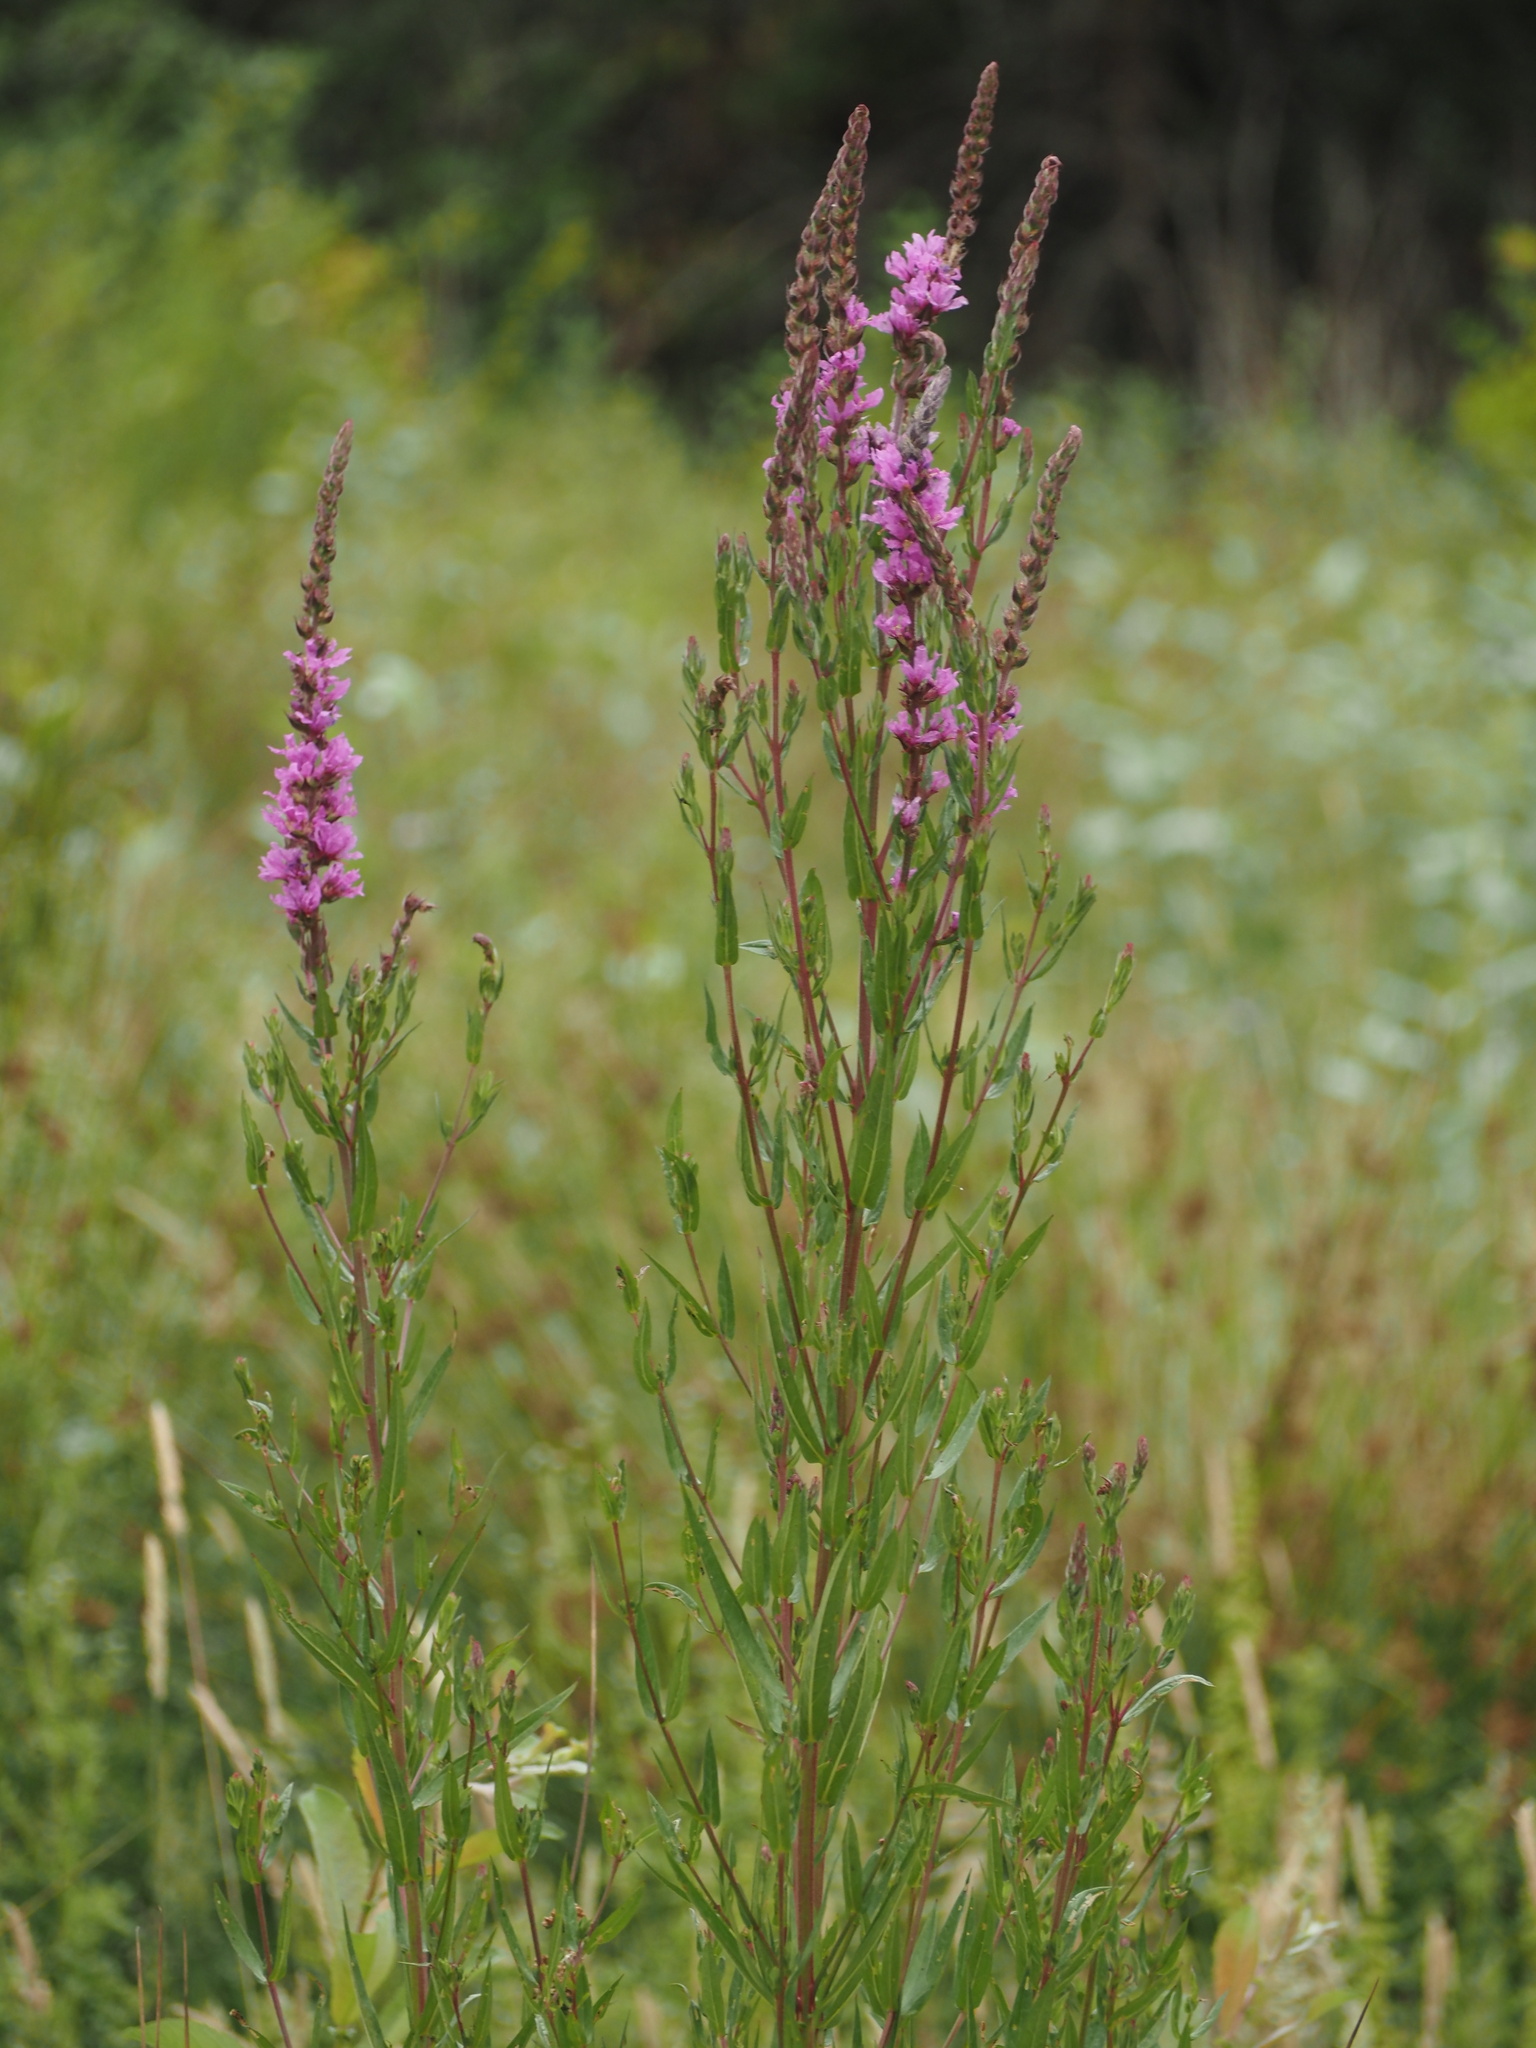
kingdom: Plantae
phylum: Tracheophyta
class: Magnoliopsida
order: Myrtales
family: Lythraceae
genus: Lythrum
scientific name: Lythrum salicaria
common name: Purple loosestrife
